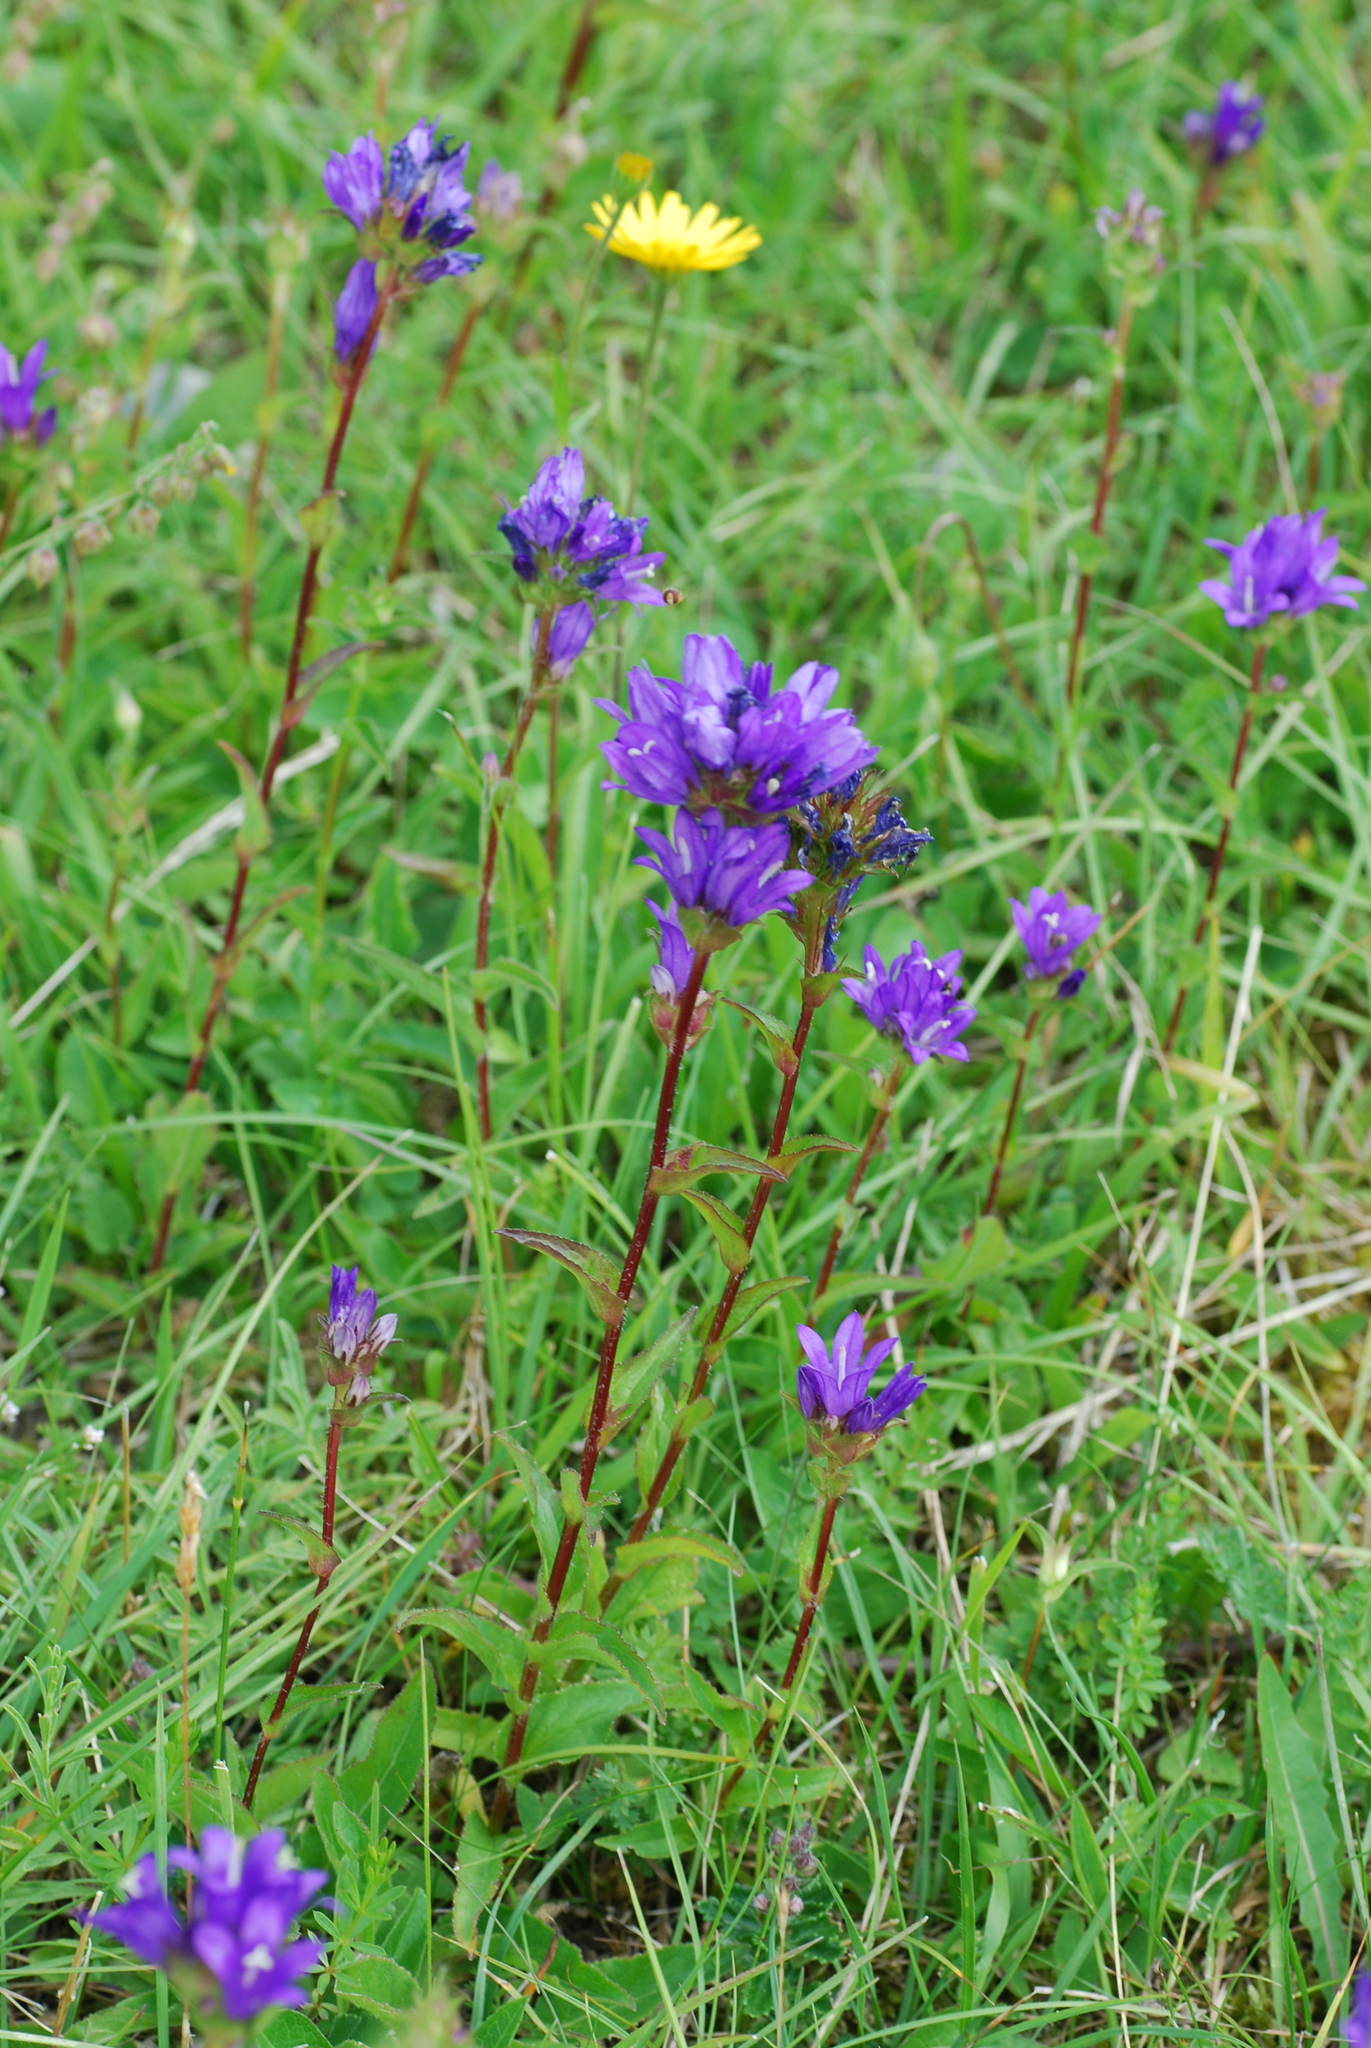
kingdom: Plantae
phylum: Tracheophyta
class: Magnoliopsida
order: Asterales
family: Campanulaceae
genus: Campanula
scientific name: Campanula glomerata
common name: Clustered bellflower
